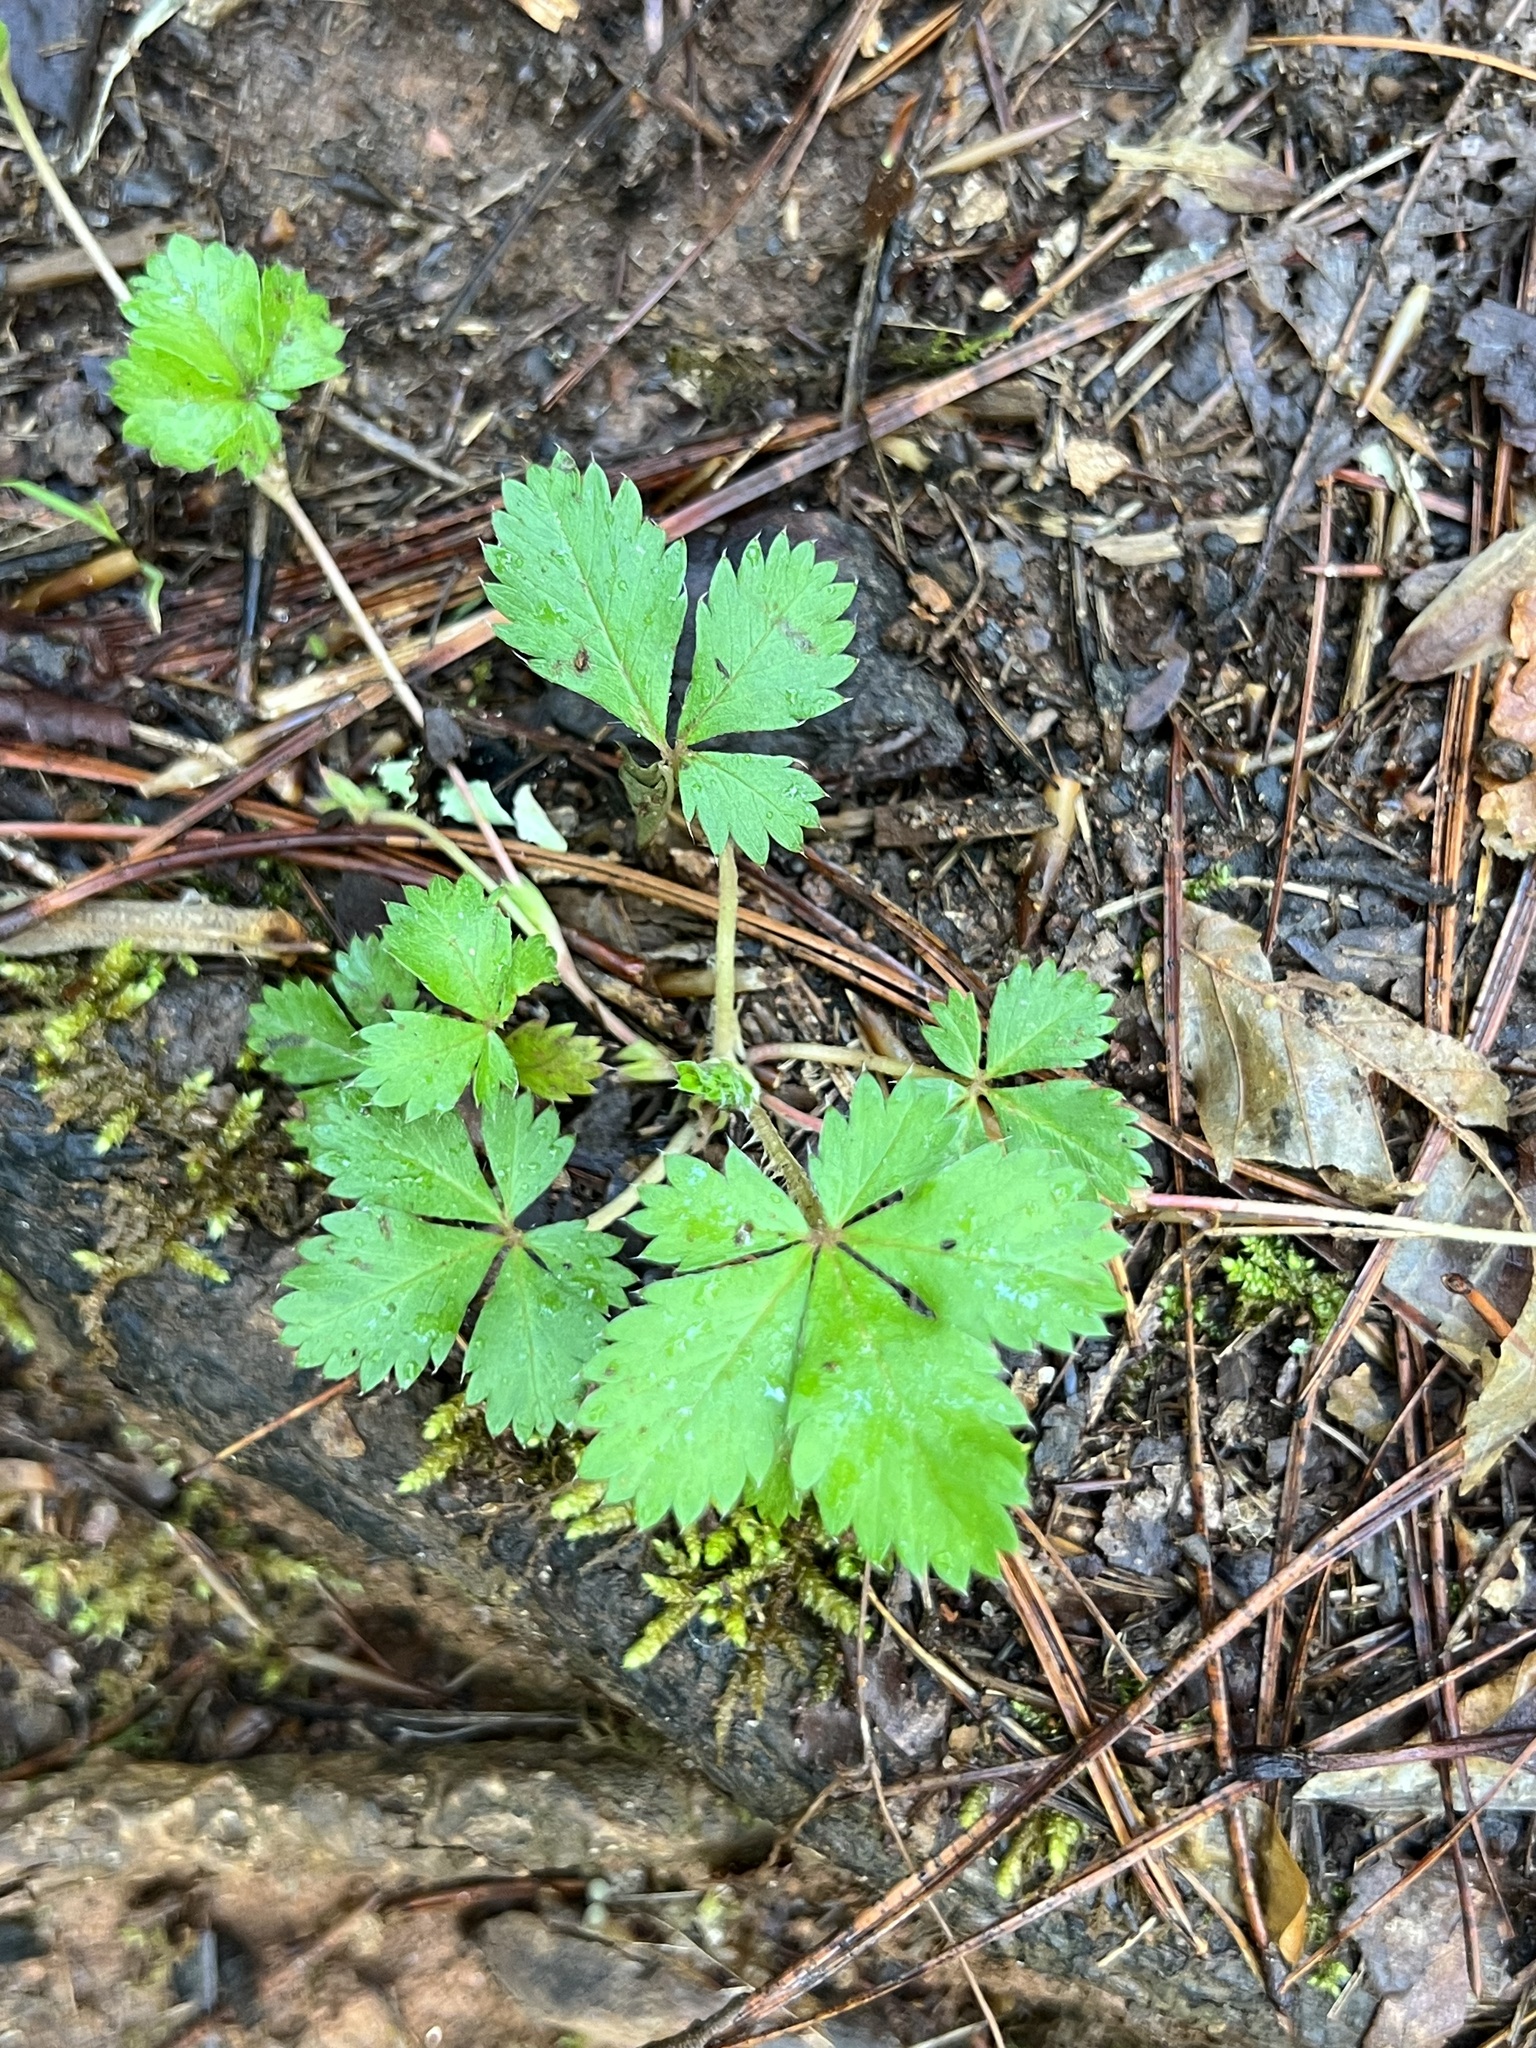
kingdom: Plantae
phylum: Tracheophyta
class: Magnoliopsida
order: Rosales
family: Rosaceae
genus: Potentilla
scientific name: Potentilla indica
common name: Yellow-flowered strawberry
